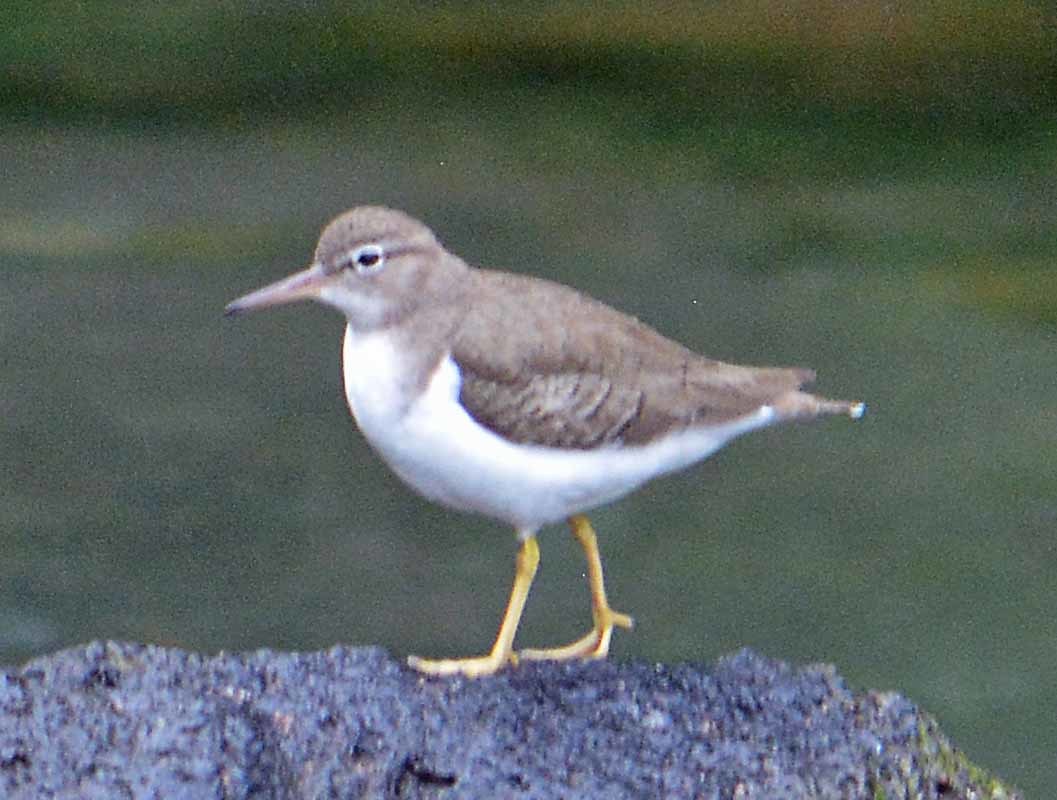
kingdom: Animalia
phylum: Chordata
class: Aves
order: Charadriiformes
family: Scolopacidae
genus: Actitis
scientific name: Actitis macularius
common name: Spotted sandpiper
